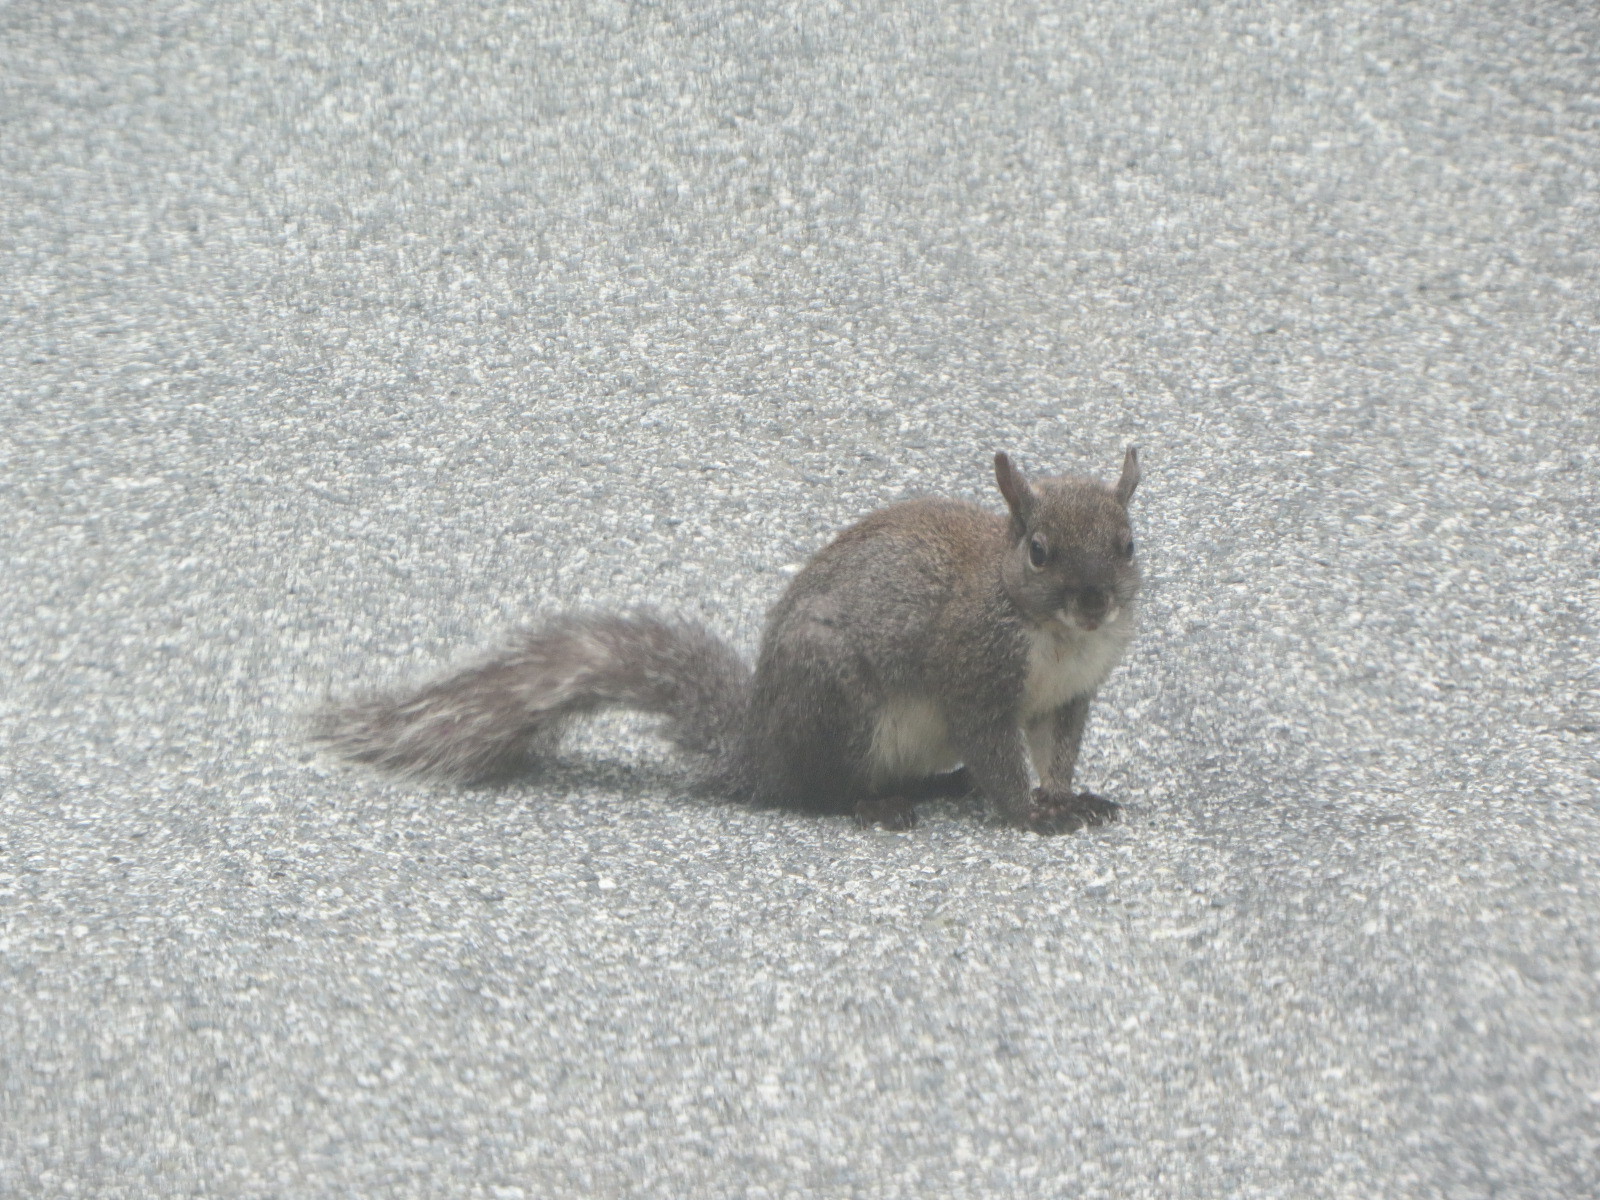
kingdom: Animalia
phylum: Chordata
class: Mammalia
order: Rodentia
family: Sciuridae
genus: Sciurus
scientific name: Sciurus griseus
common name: Western gray squirrel
